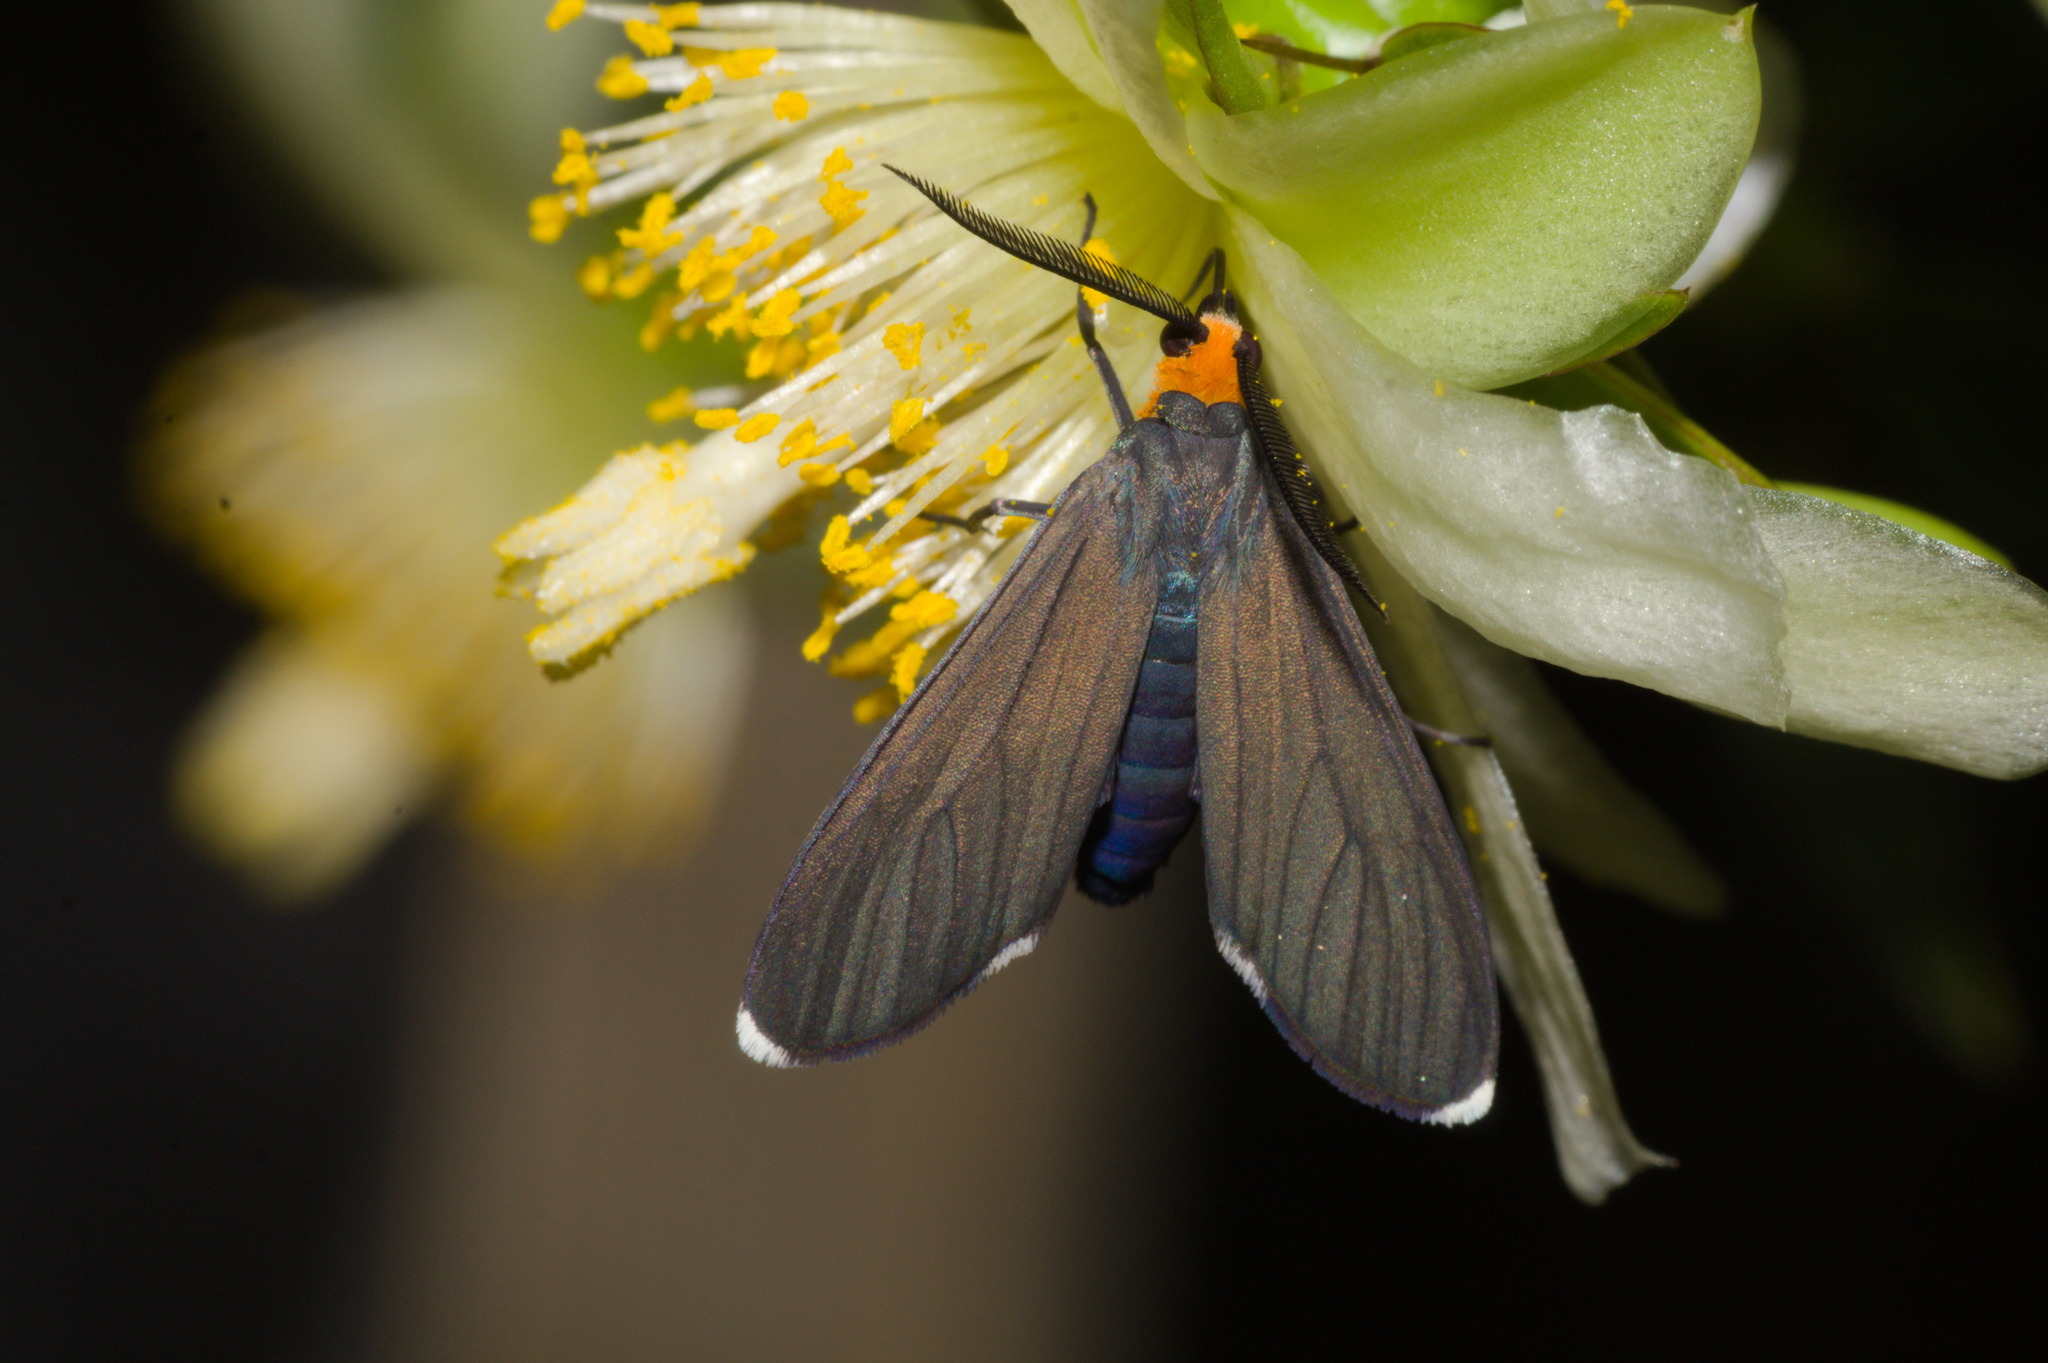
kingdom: Animalia
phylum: Arthropoda
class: Insecta
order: Lepidoptera
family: Erebidae
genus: Ctenucha
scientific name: Ctenucha rubriceps
